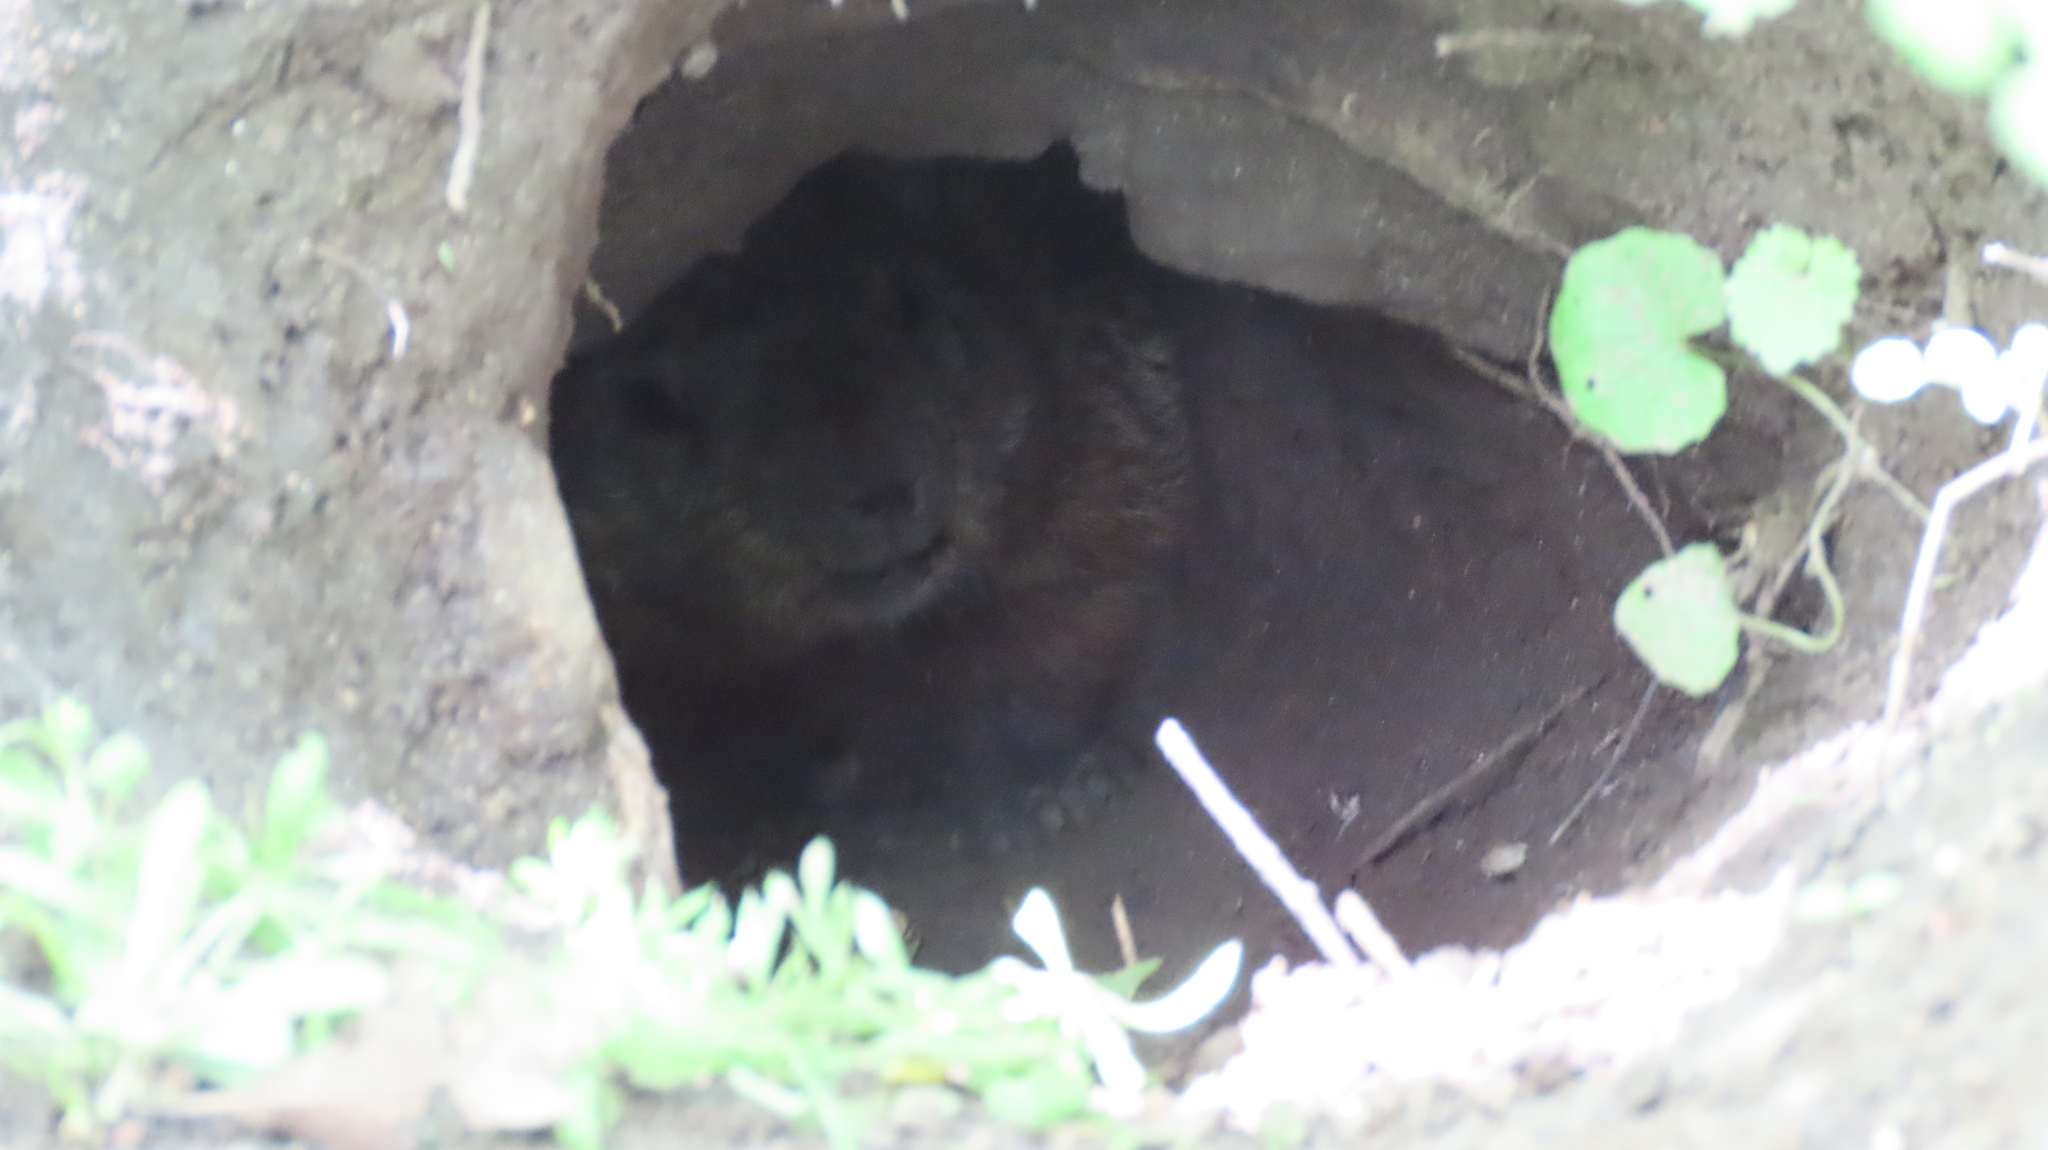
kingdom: Animalia
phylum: Chordata
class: Mammalia
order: Rodentia
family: Sciuridae
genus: Marmota
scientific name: Marmota monax
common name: Groundhog
